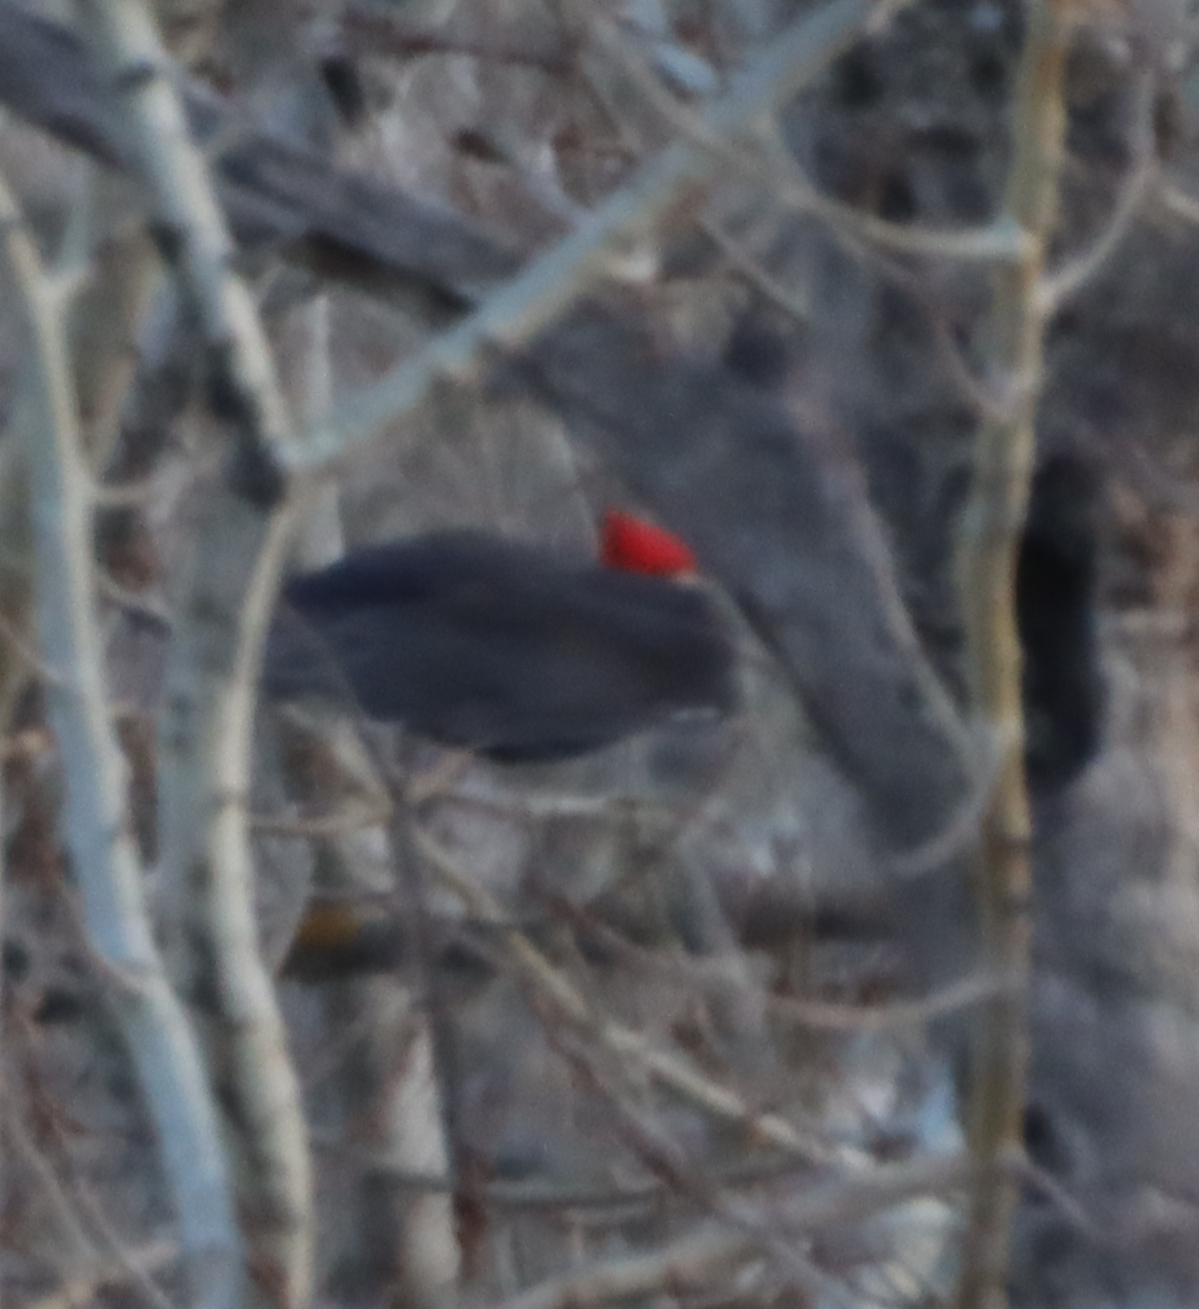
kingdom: Animalia
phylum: Chordata
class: Aves
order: Piciformes
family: Picidae
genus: Dryocopus
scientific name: Dryocopus pileatus
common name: Pileated woodpecker
